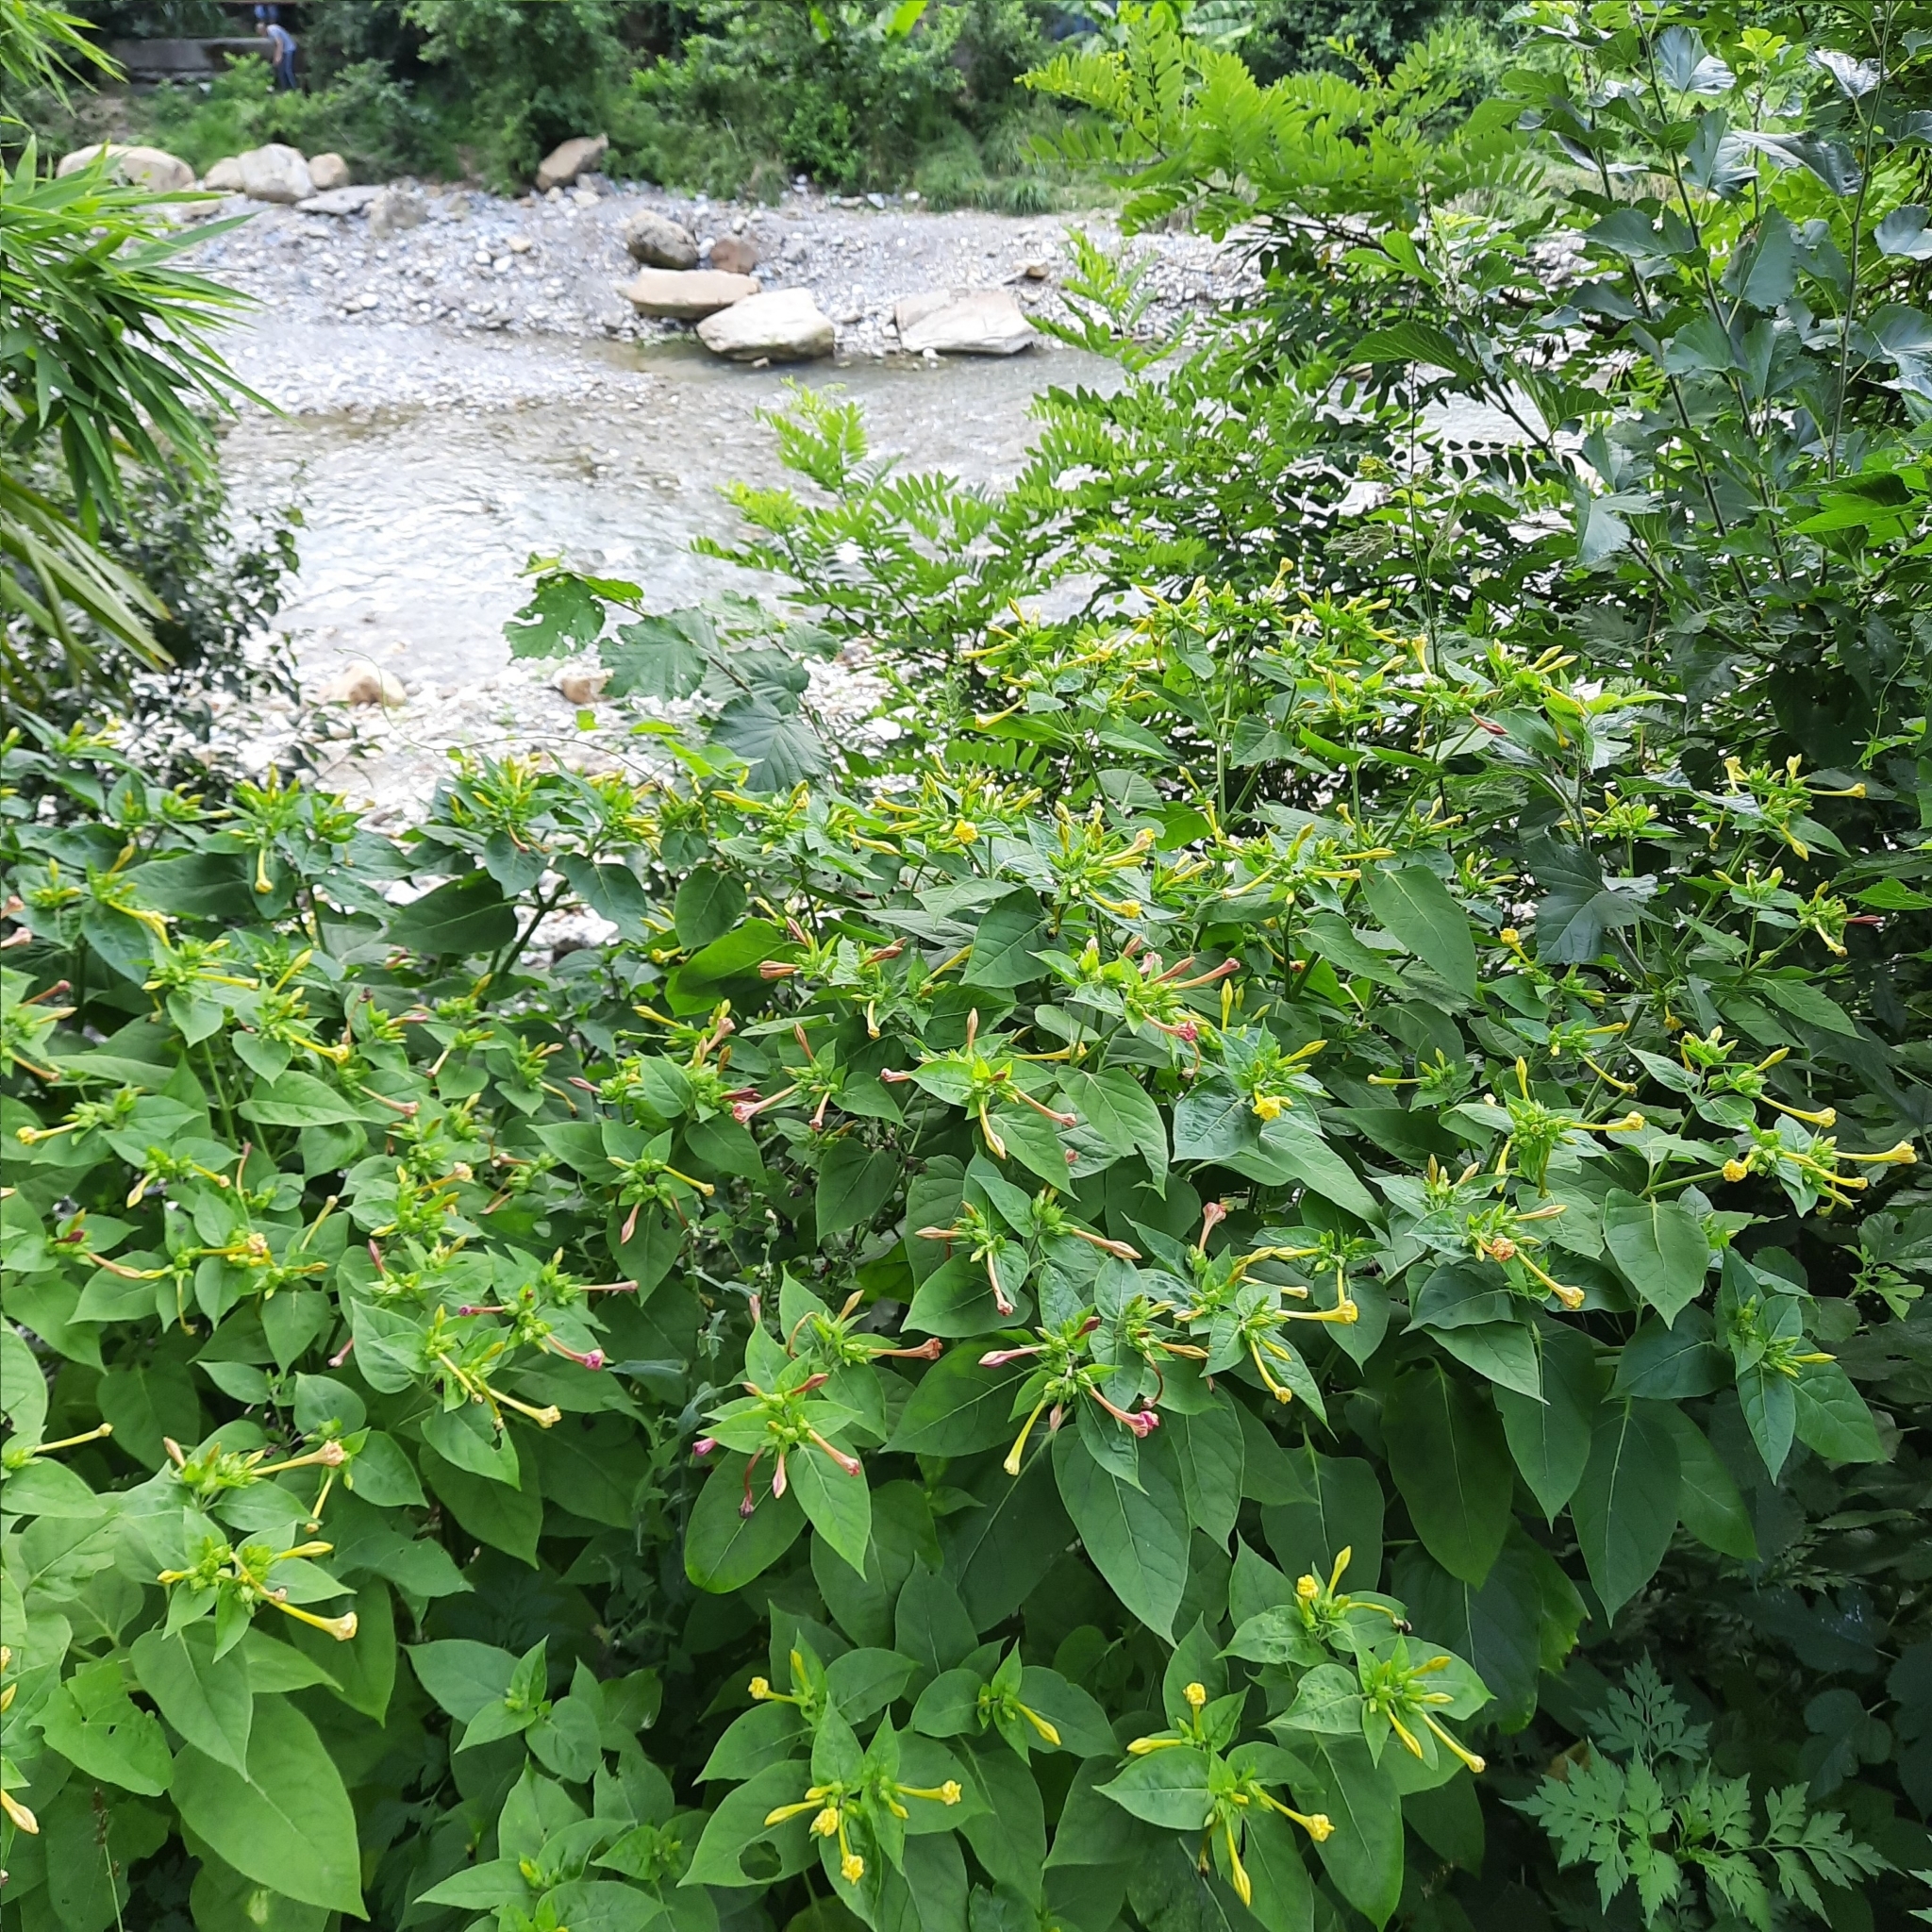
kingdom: Plantae
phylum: Tracheophyta
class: Magnoliopsida
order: Caryophyllales
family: Nyctaginaceae
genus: Mirabilis
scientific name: Mirabilis jalapa
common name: Marvel-of-peru
